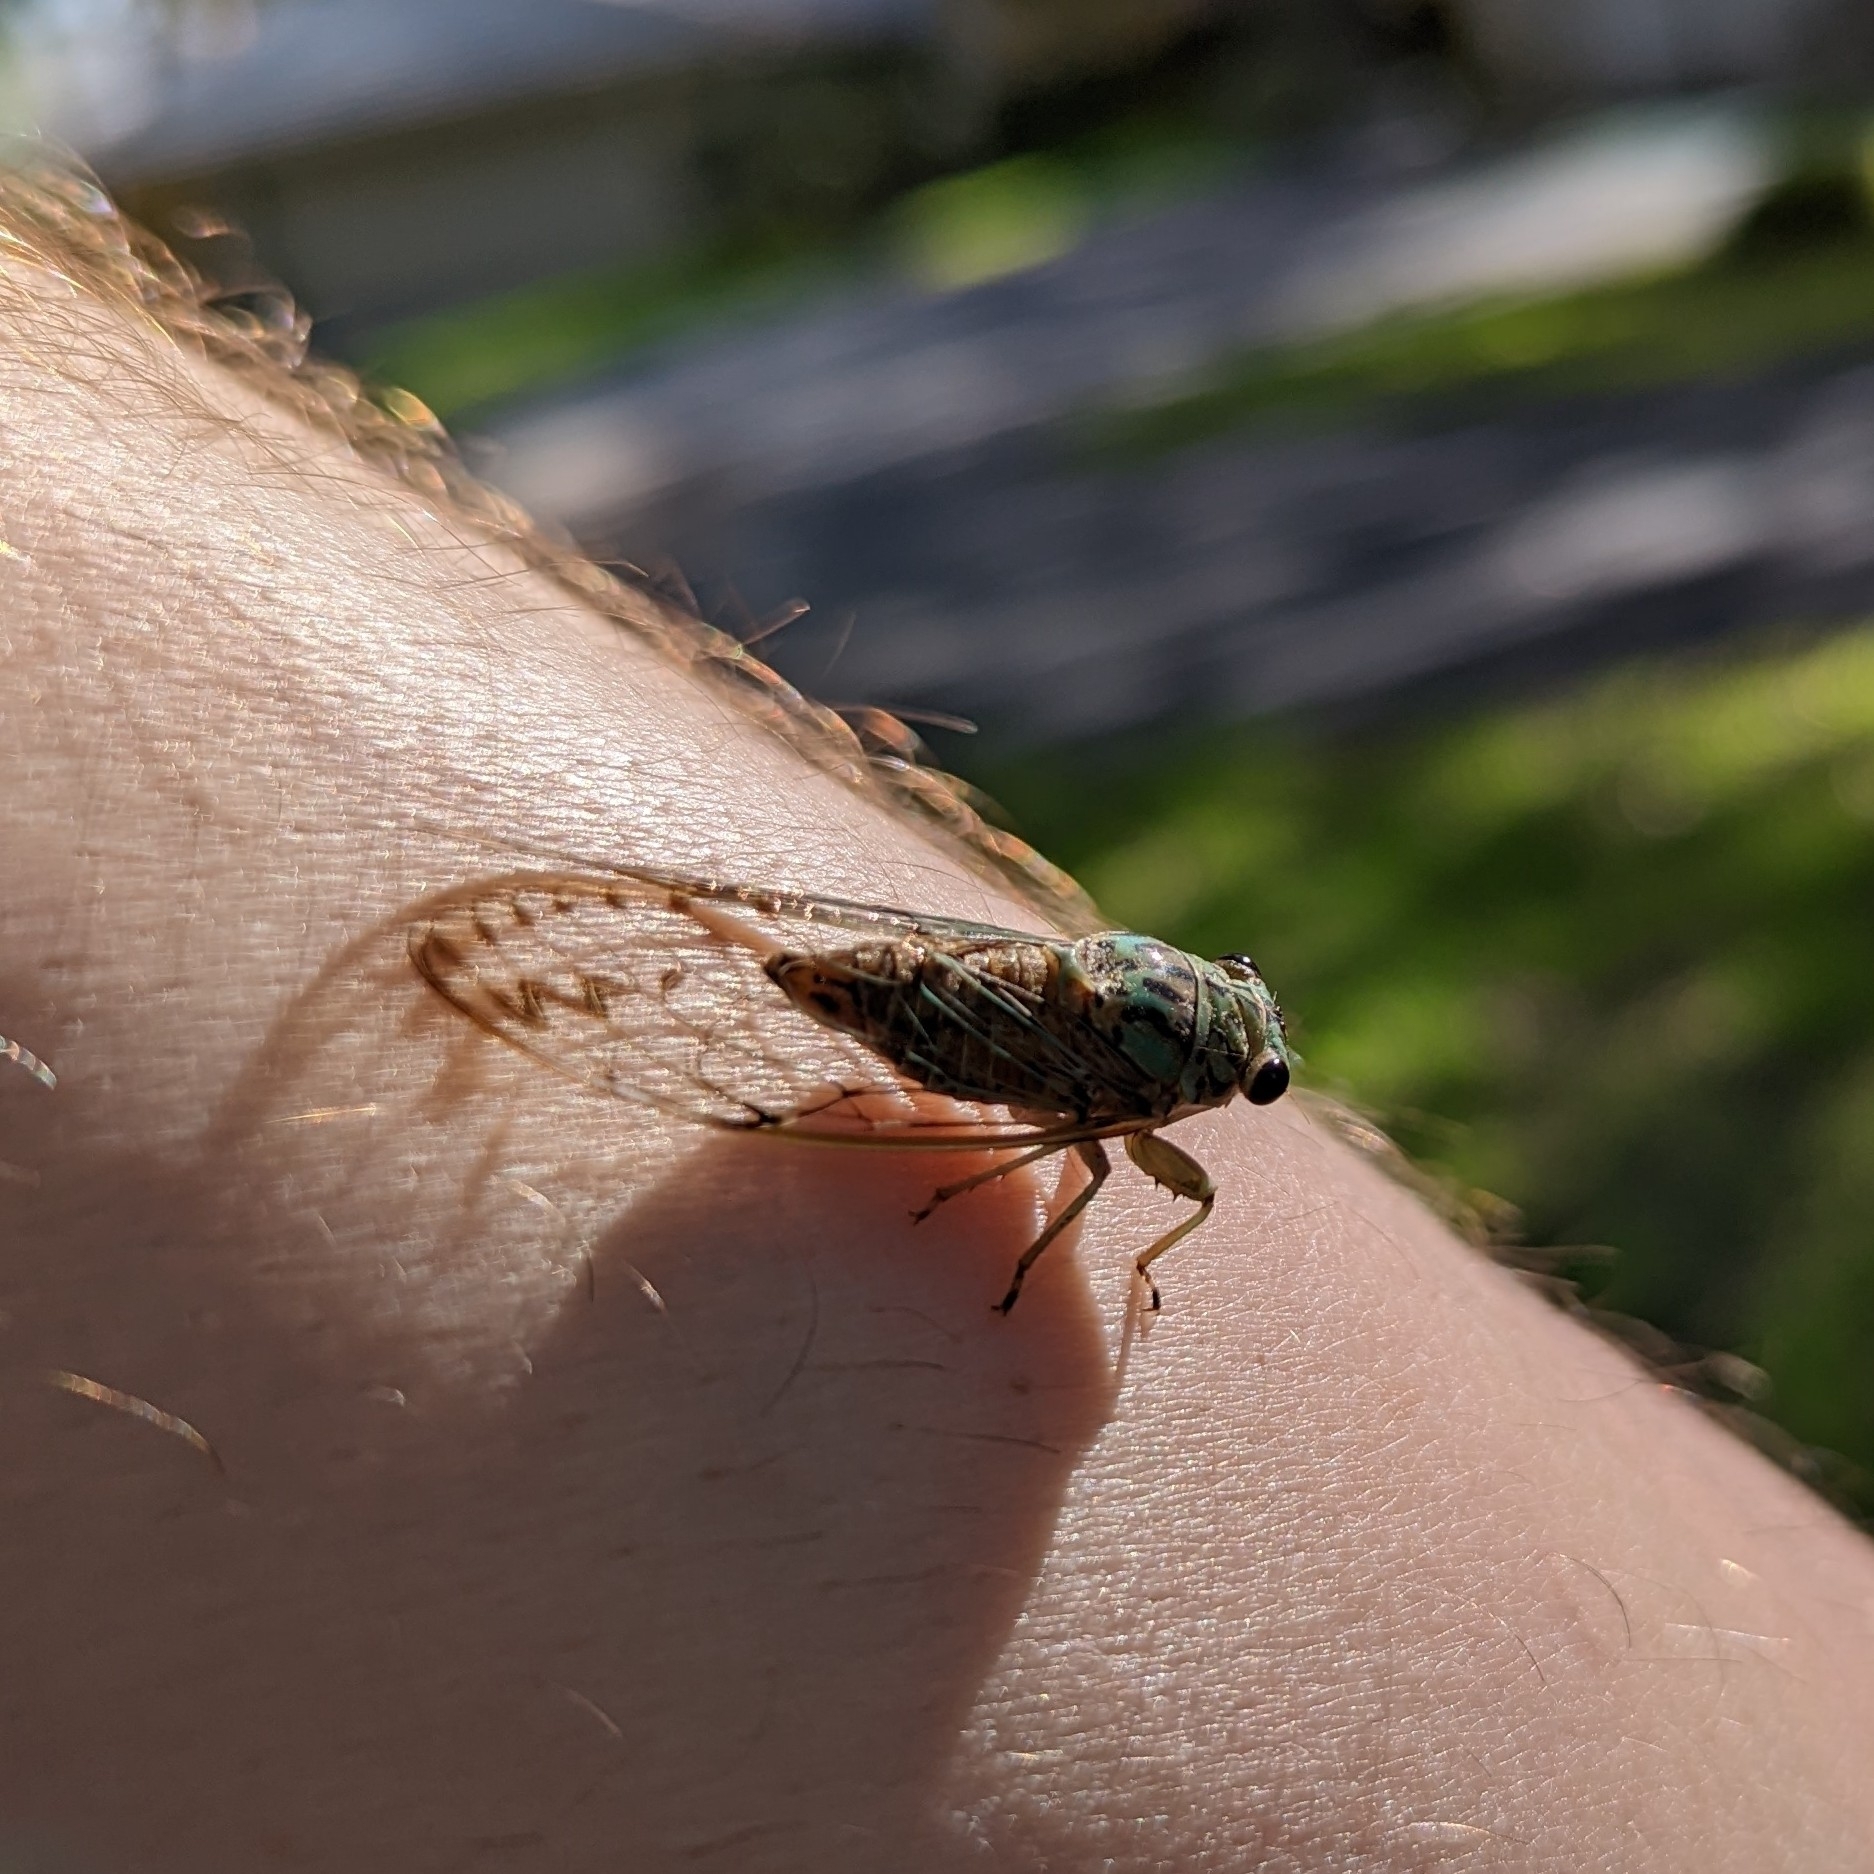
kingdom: Animalia
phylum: Arthropoda
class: Insecta
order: Hemiptera
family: Cicadidae
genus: Neocicada
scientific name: Neocicada hieroglyphica
